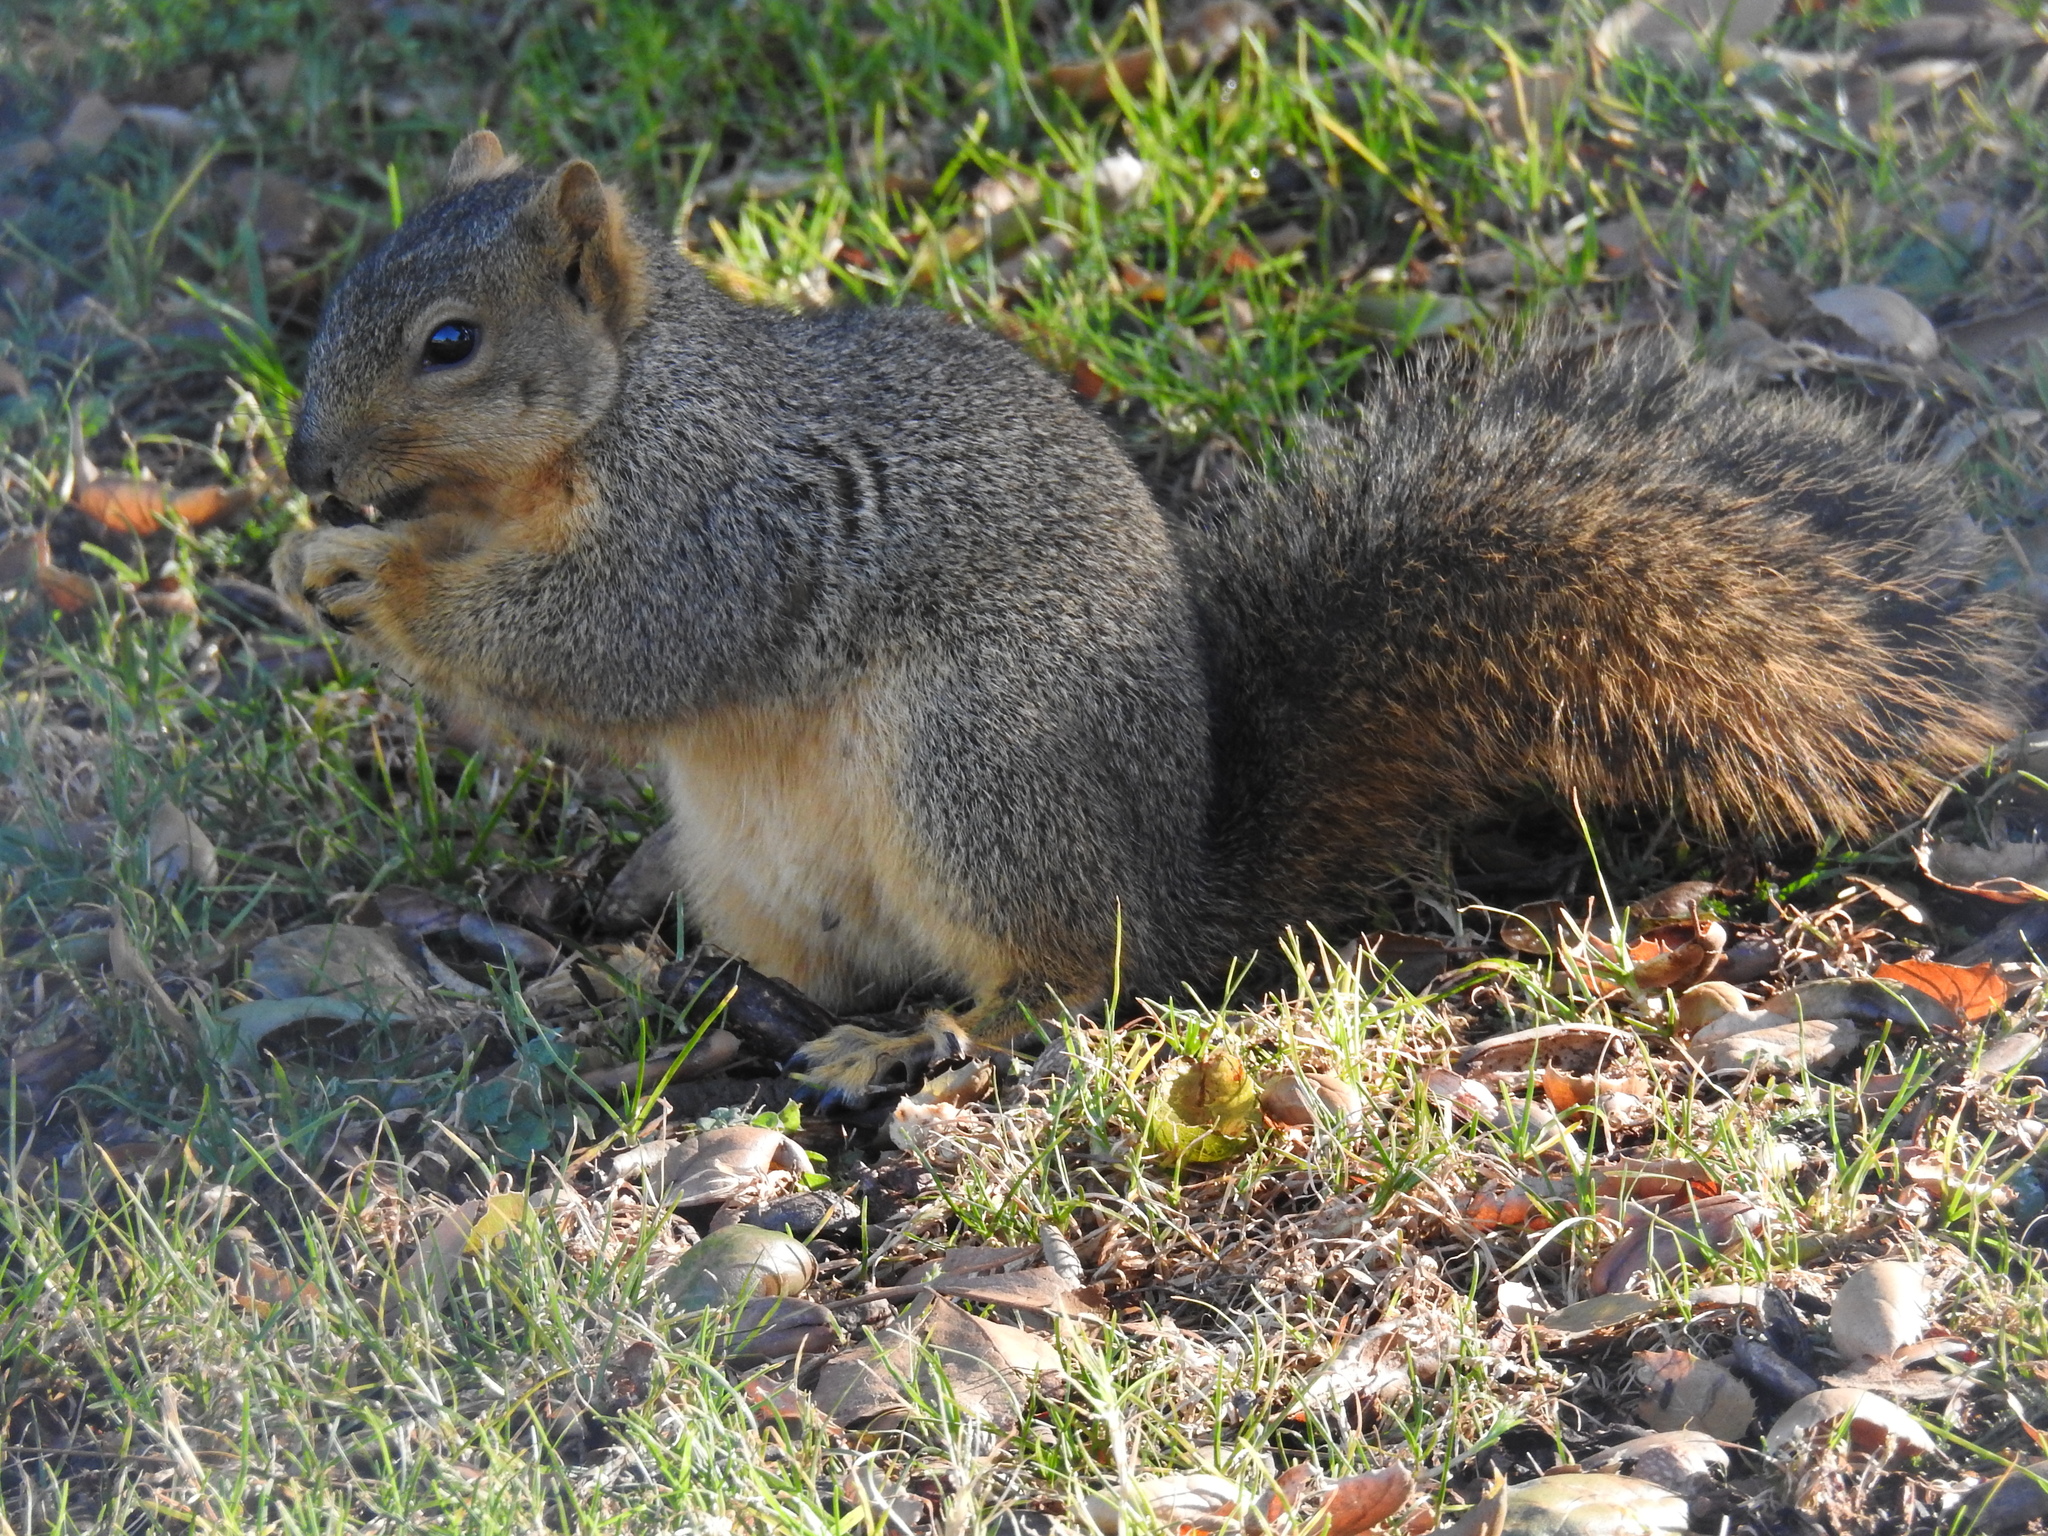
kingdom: Animalia
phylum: Chordata
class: Mammalia
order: Rodentia
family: Sciuridae
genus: Sciurus
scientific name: Sciurus niger
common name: Fox squirrel
